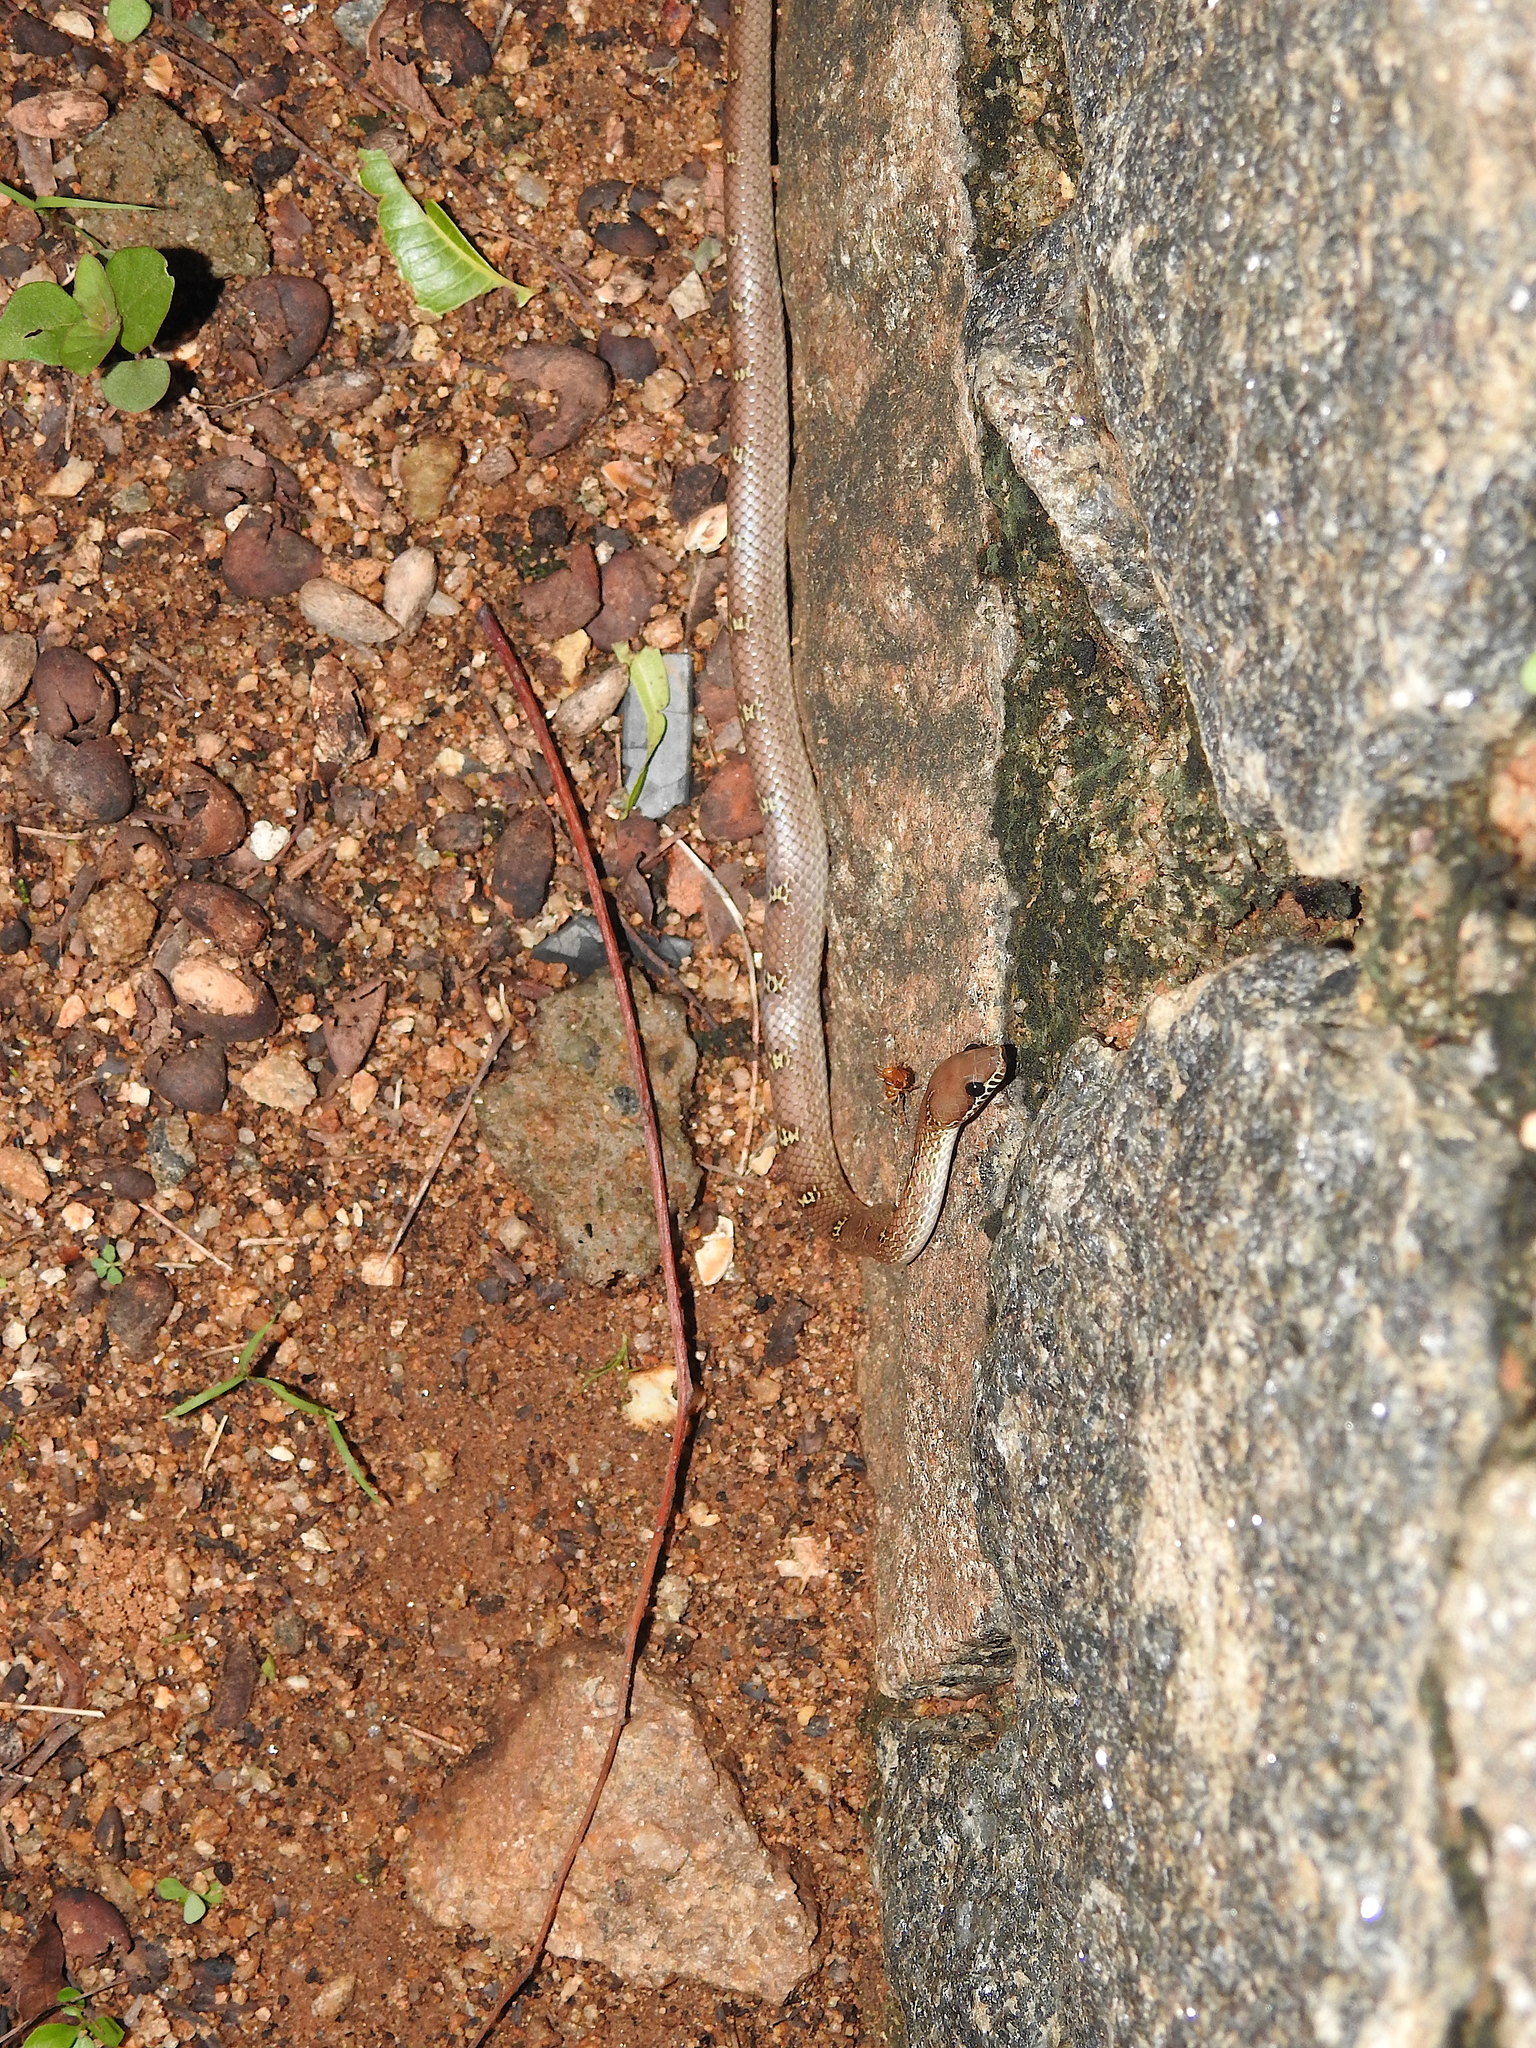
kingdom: Animalia
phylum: Chordata
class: Squamata
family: Colubridae
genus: Lycodon
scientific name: Lycodon fasciolatus
